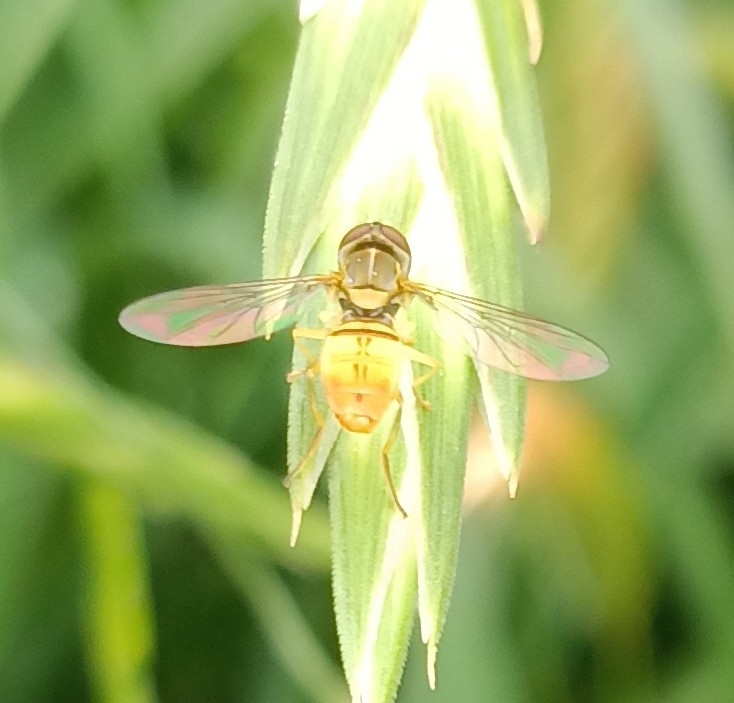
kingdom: Animalia
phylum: Arthropoda
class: Insecta
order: Diptera
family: Syrphidae
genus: Toxomerus
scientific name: Toxomerus marginatus
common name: Syrphid fly
